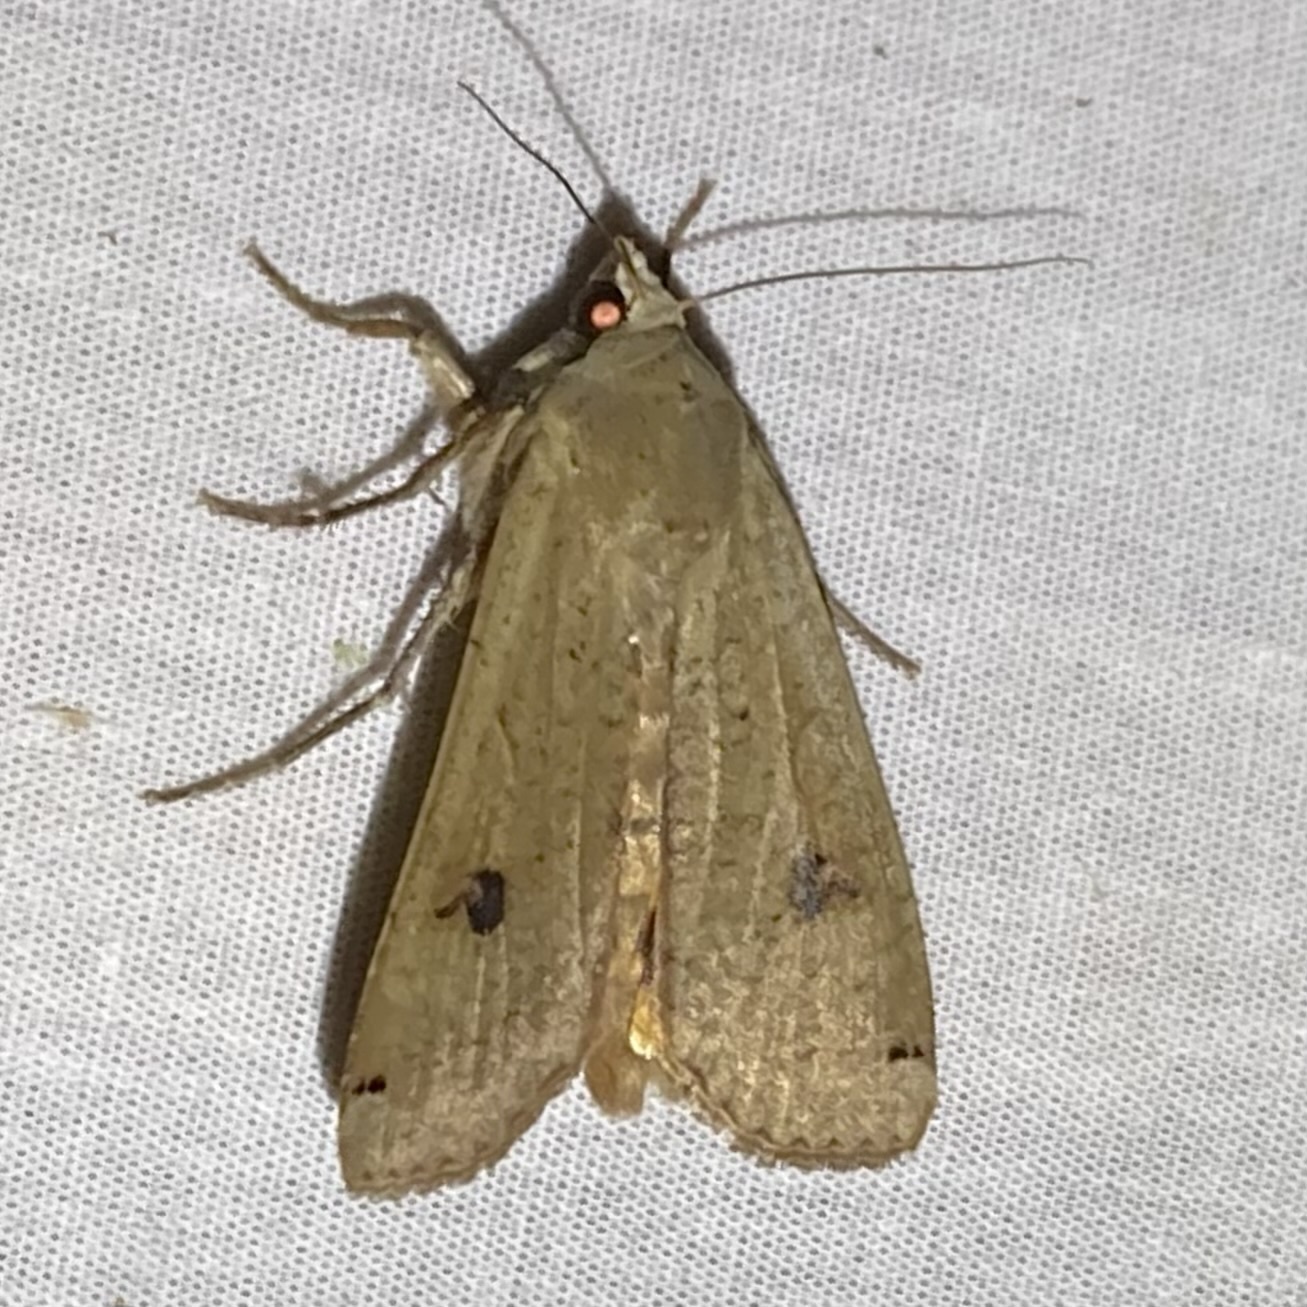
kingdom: Animalia
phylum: Arthropoda
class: Insecta
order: Lepidoptera
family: Noctuidae
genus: Noctua
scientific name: Noctua pronuba
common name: Large yellow underwing
